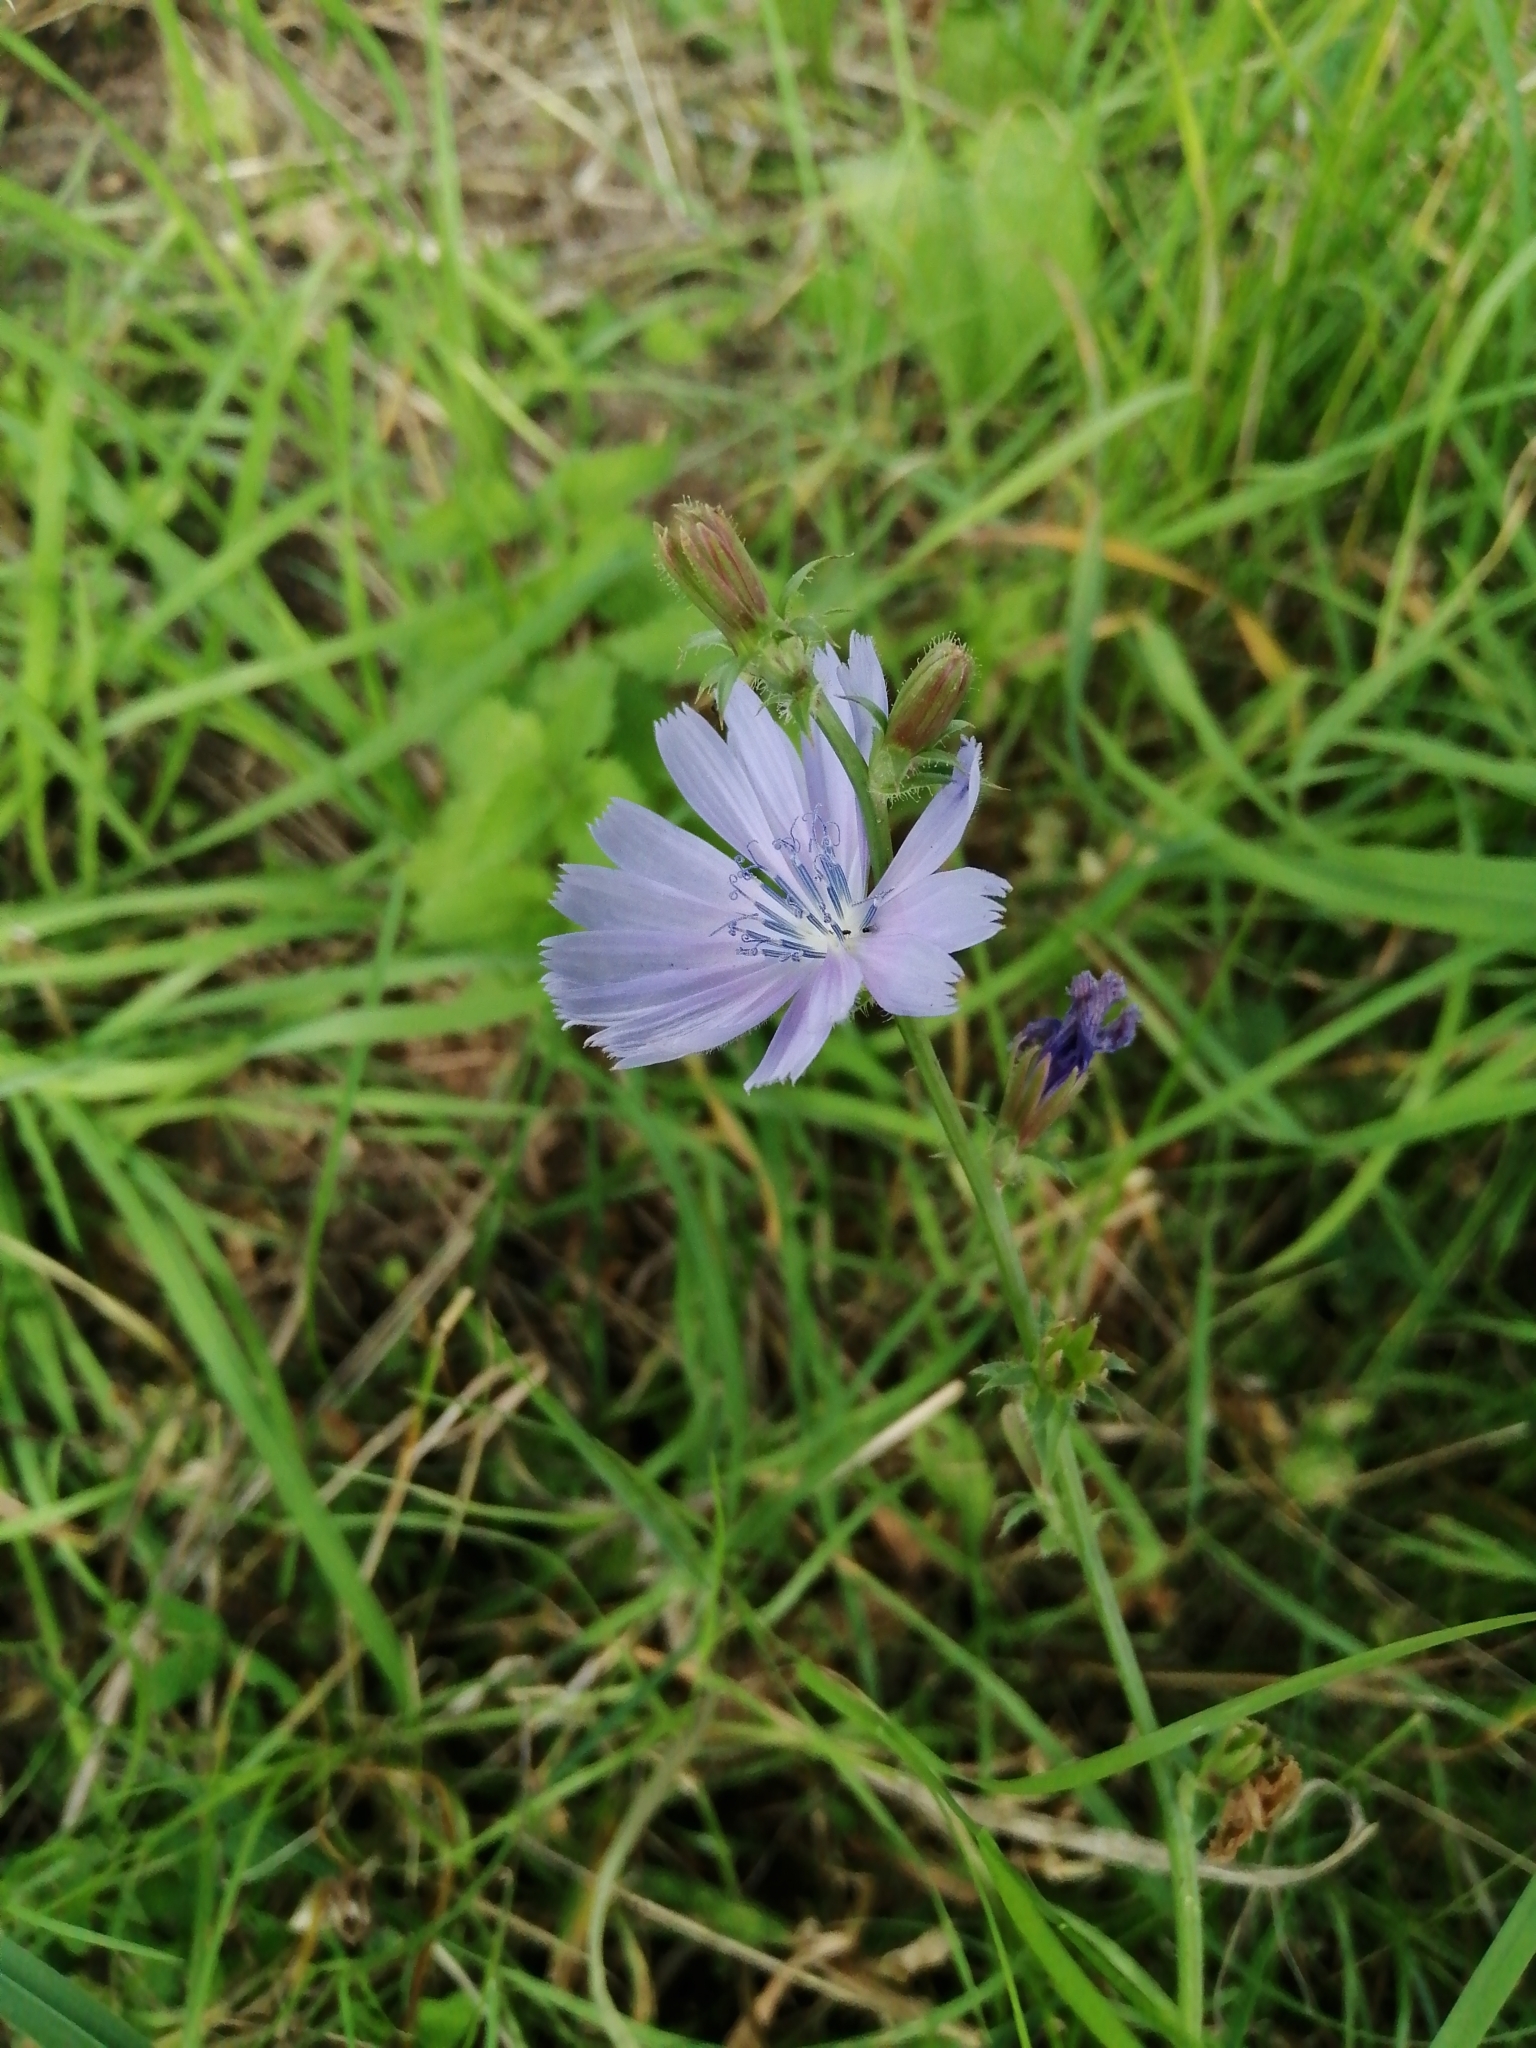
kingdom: Plantae
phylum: Tracheophyta
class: Magnoliopsida
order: Asterales
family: Asteraceae
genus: Cichorium
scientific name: Cichorium intybus
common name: Chicory
